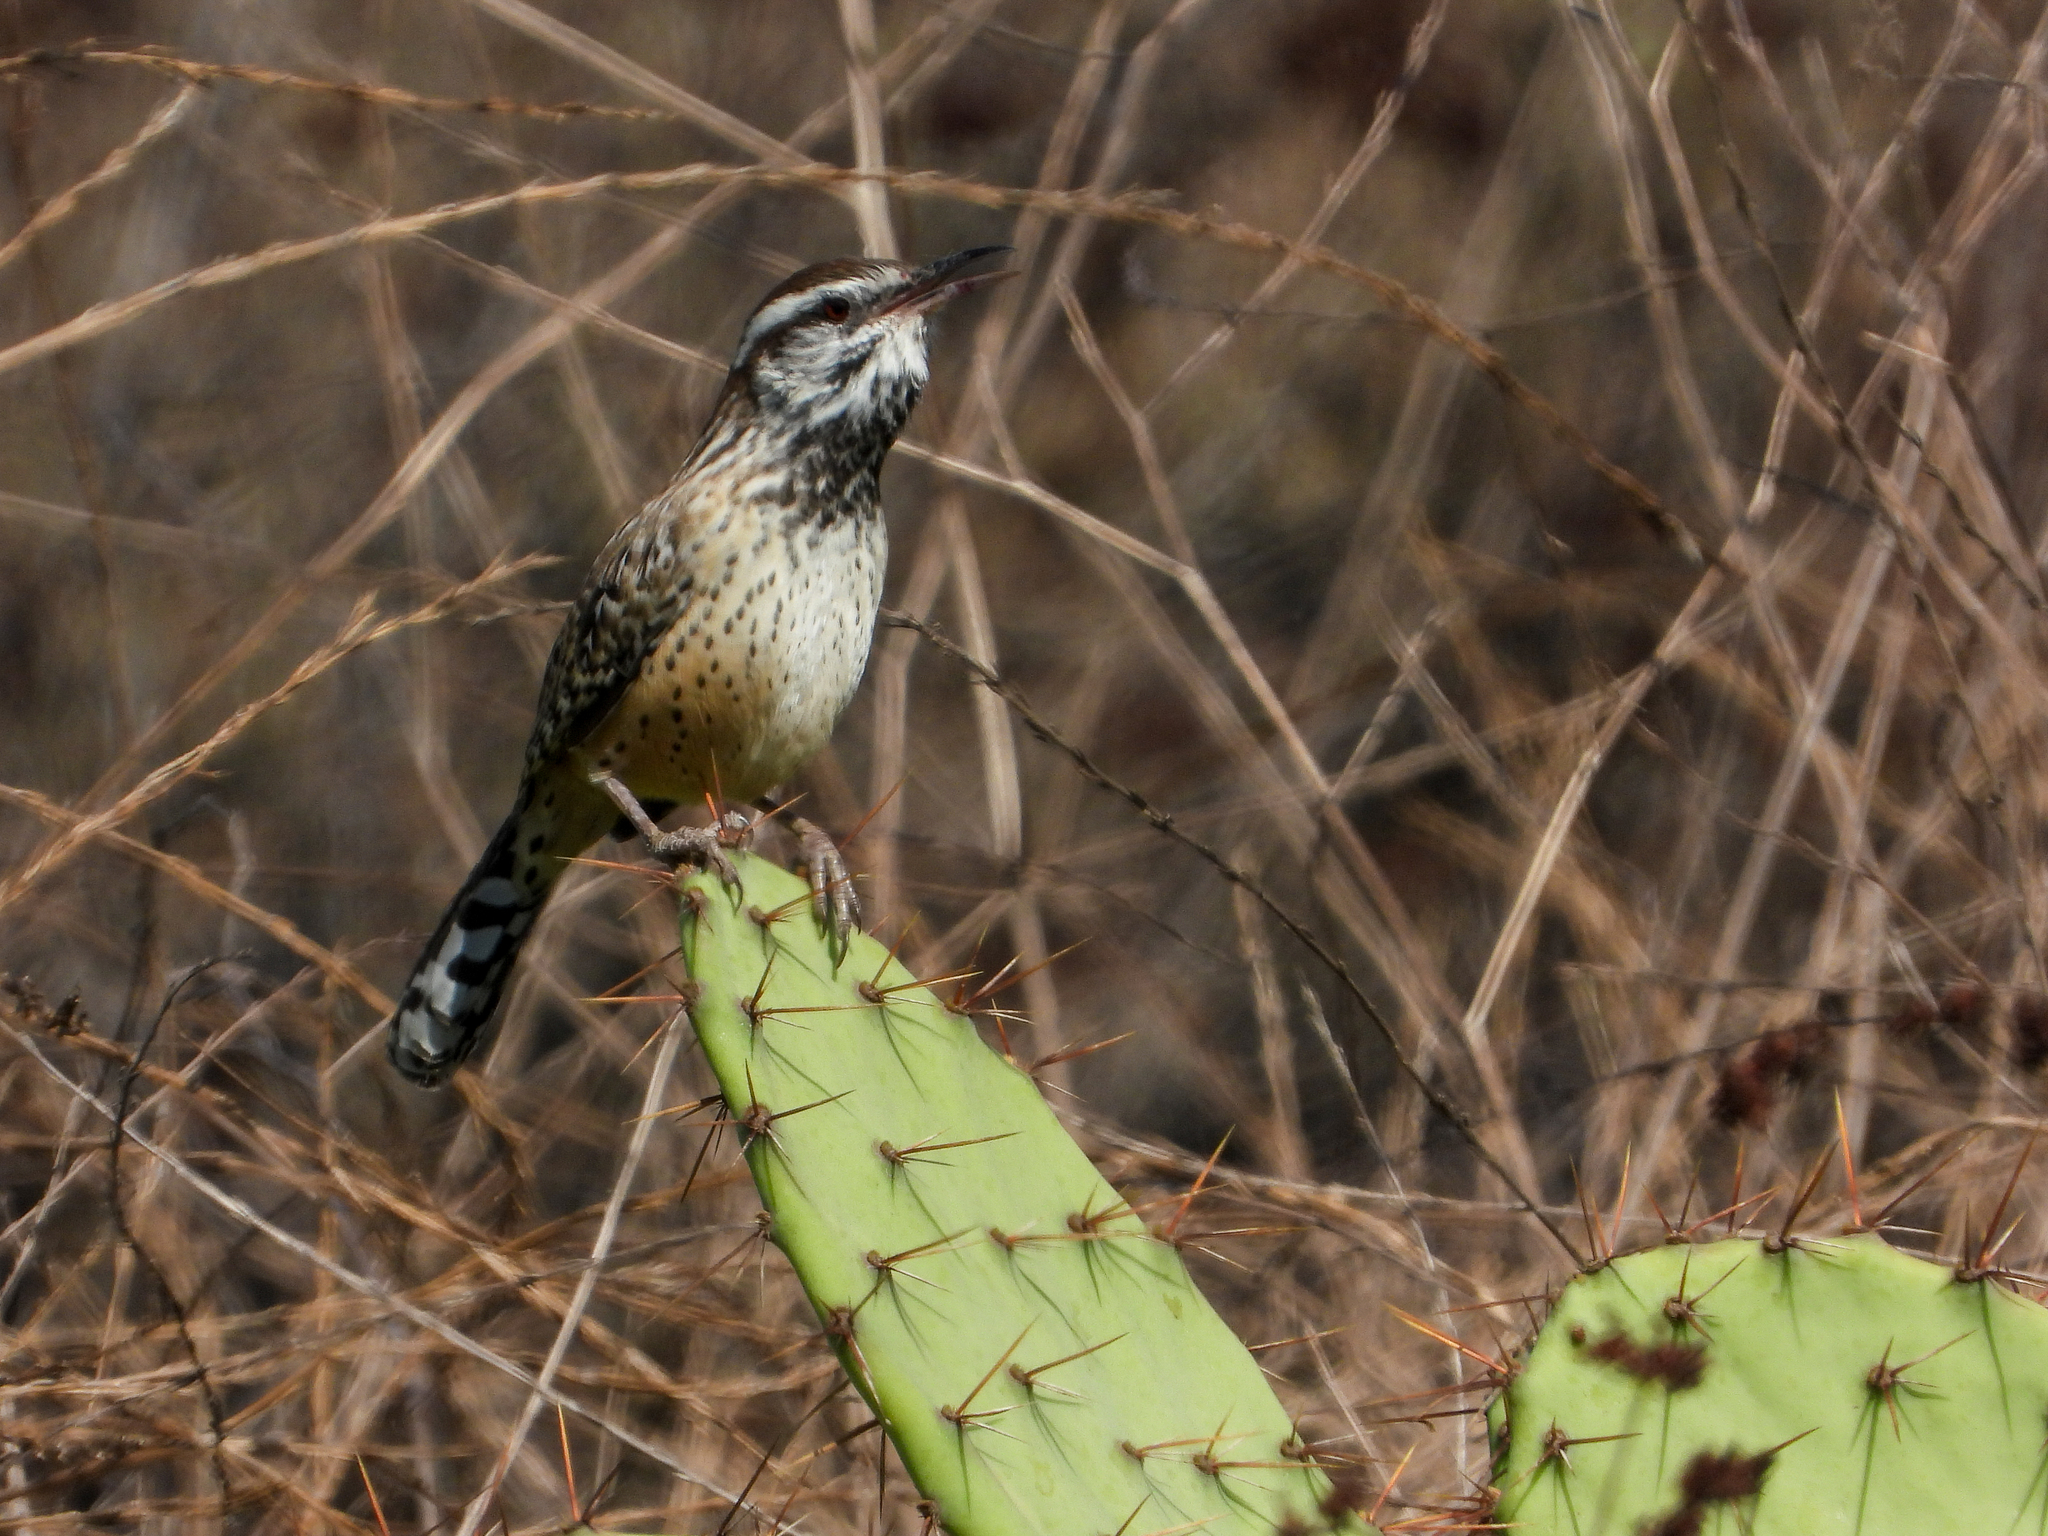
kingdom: Animalia
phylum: Chordata
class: Aves
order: Passeriformes
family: Troglodytidae
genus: Campylorhynchus
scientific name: Campylorhynchus brunneicapillus
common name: Cactus wren
